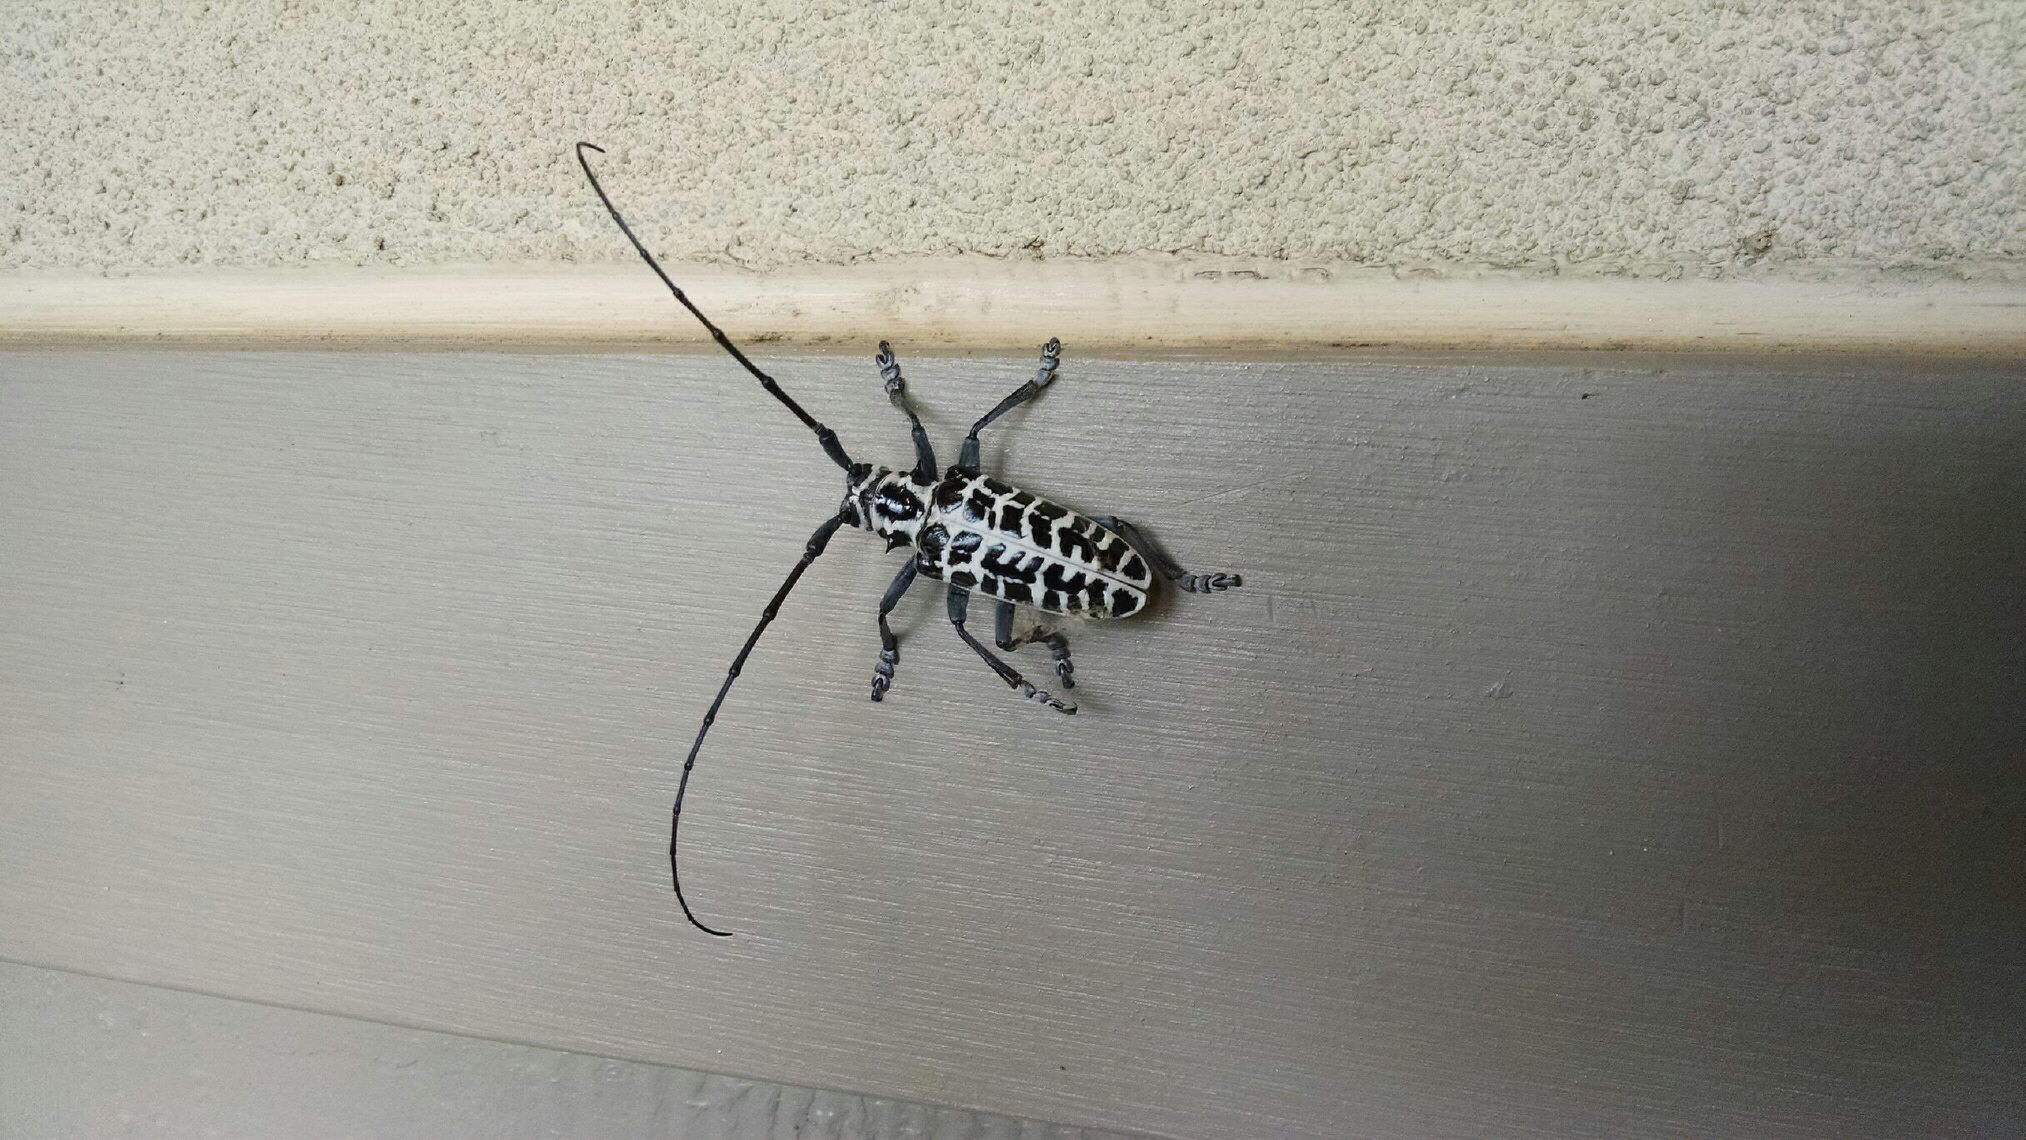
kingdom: Animalia
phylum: Arthropoda
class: Insecta
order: Coleoptera
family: Cerambycidae
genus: Plectrodera
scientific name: Plectrodera scalator
